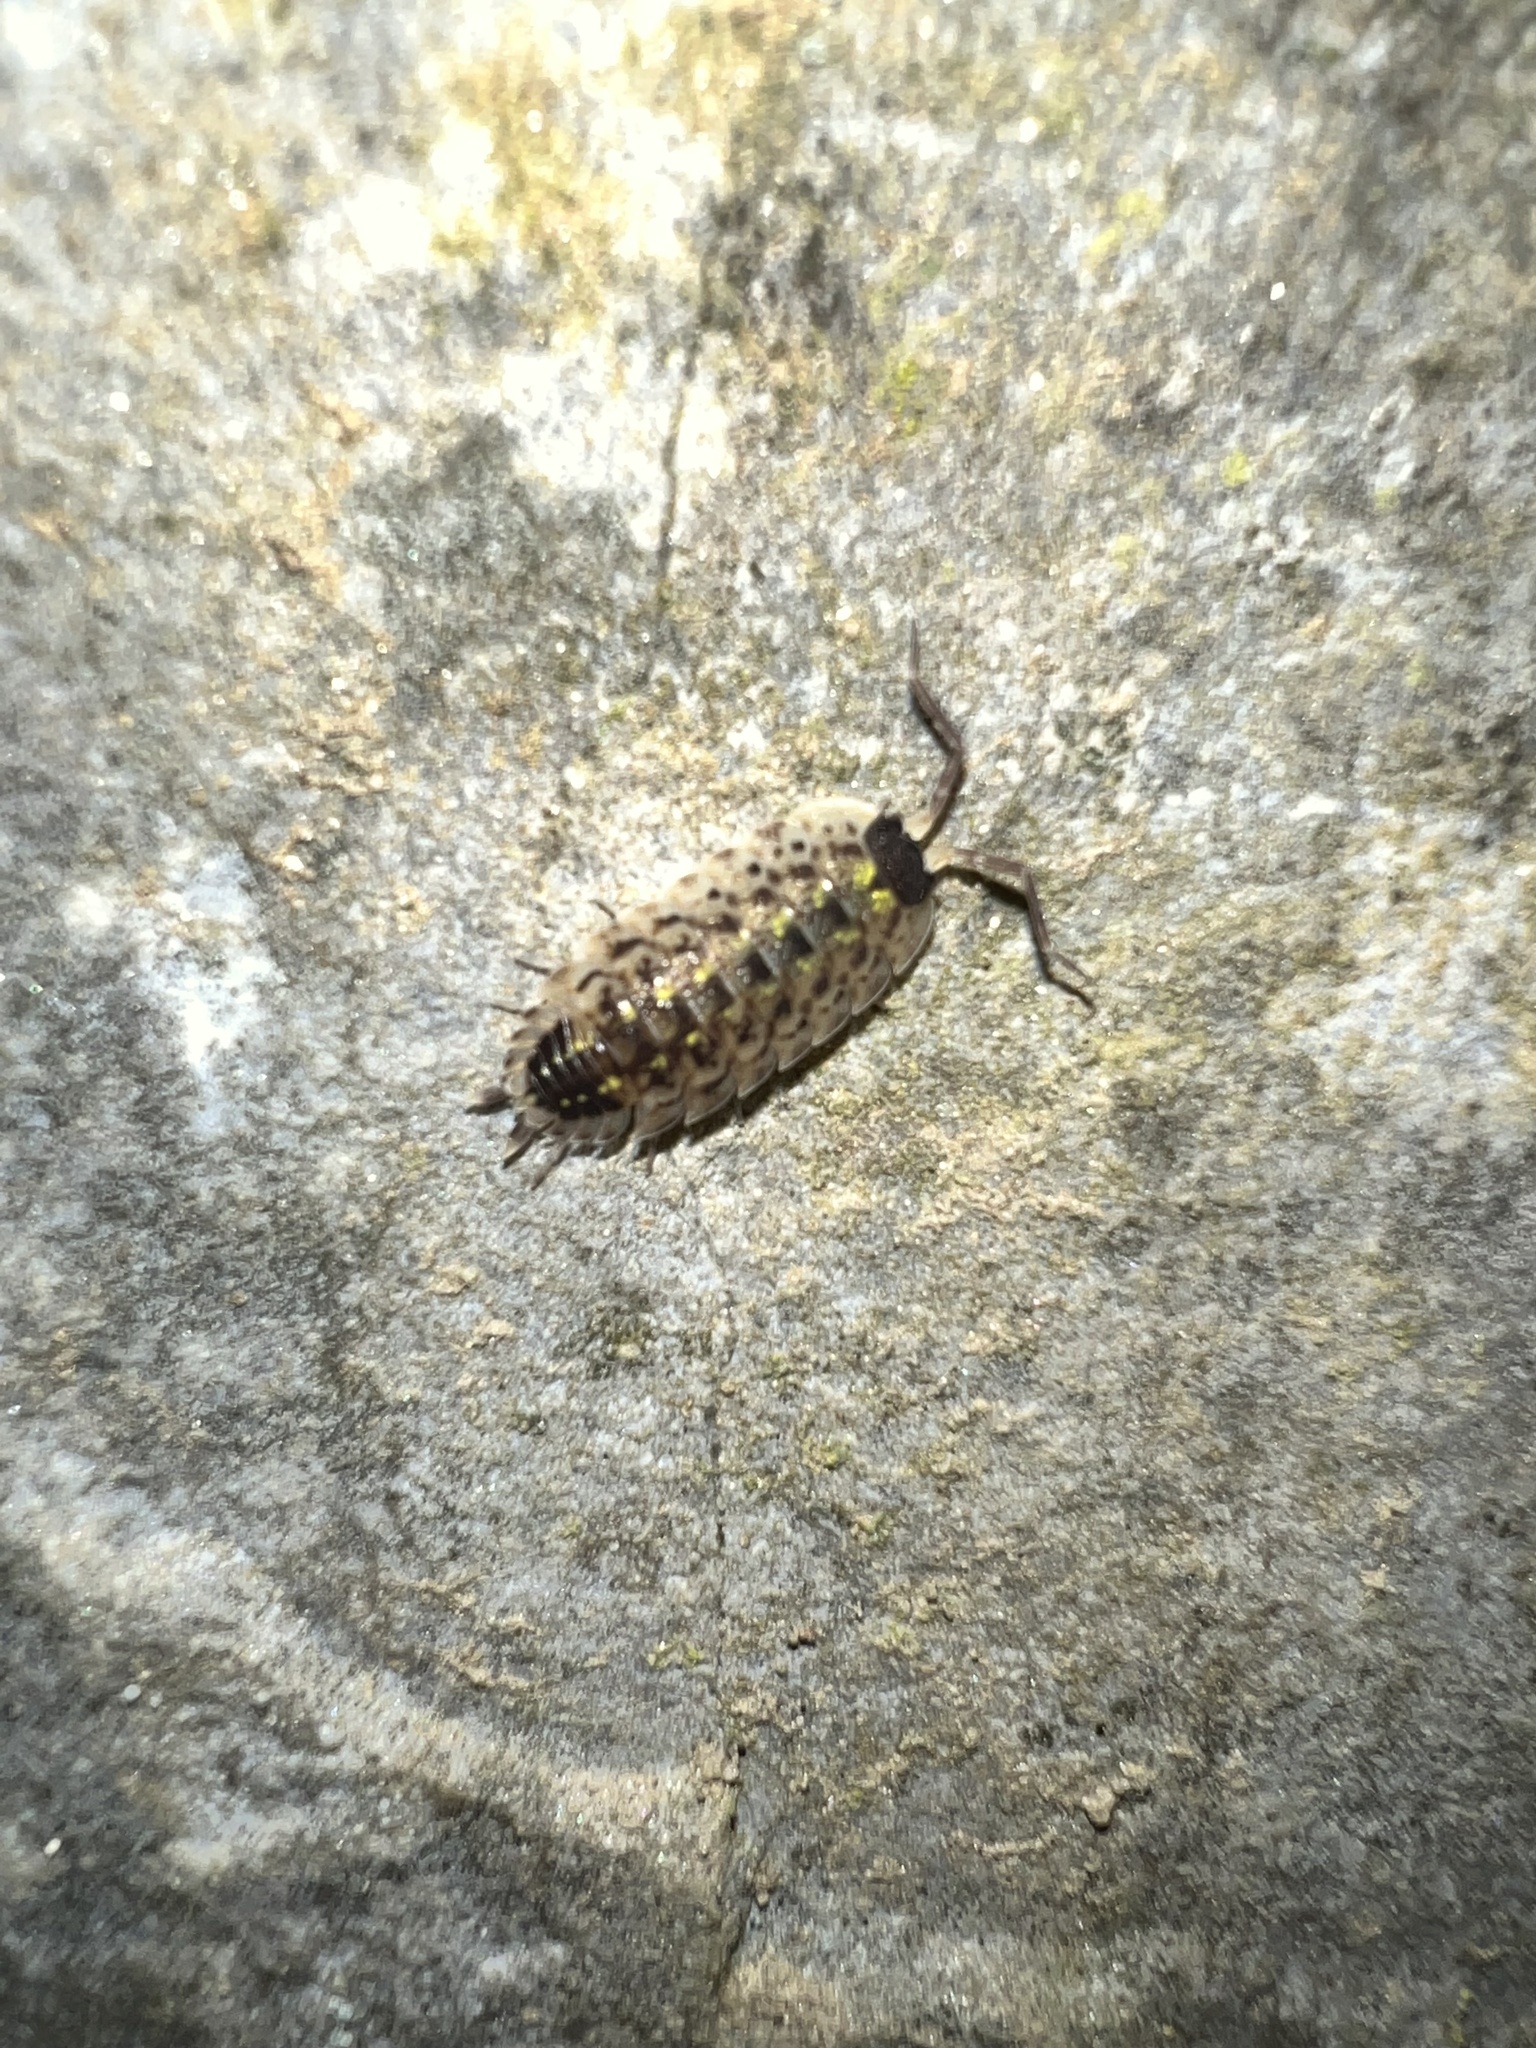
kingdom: Animalia
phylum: Arthropoda
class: Malacostraca
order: Isopoda
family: Porcellionidae
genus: Porcellio
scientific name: Porcellio spinicornis
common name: Painted woodlouse
